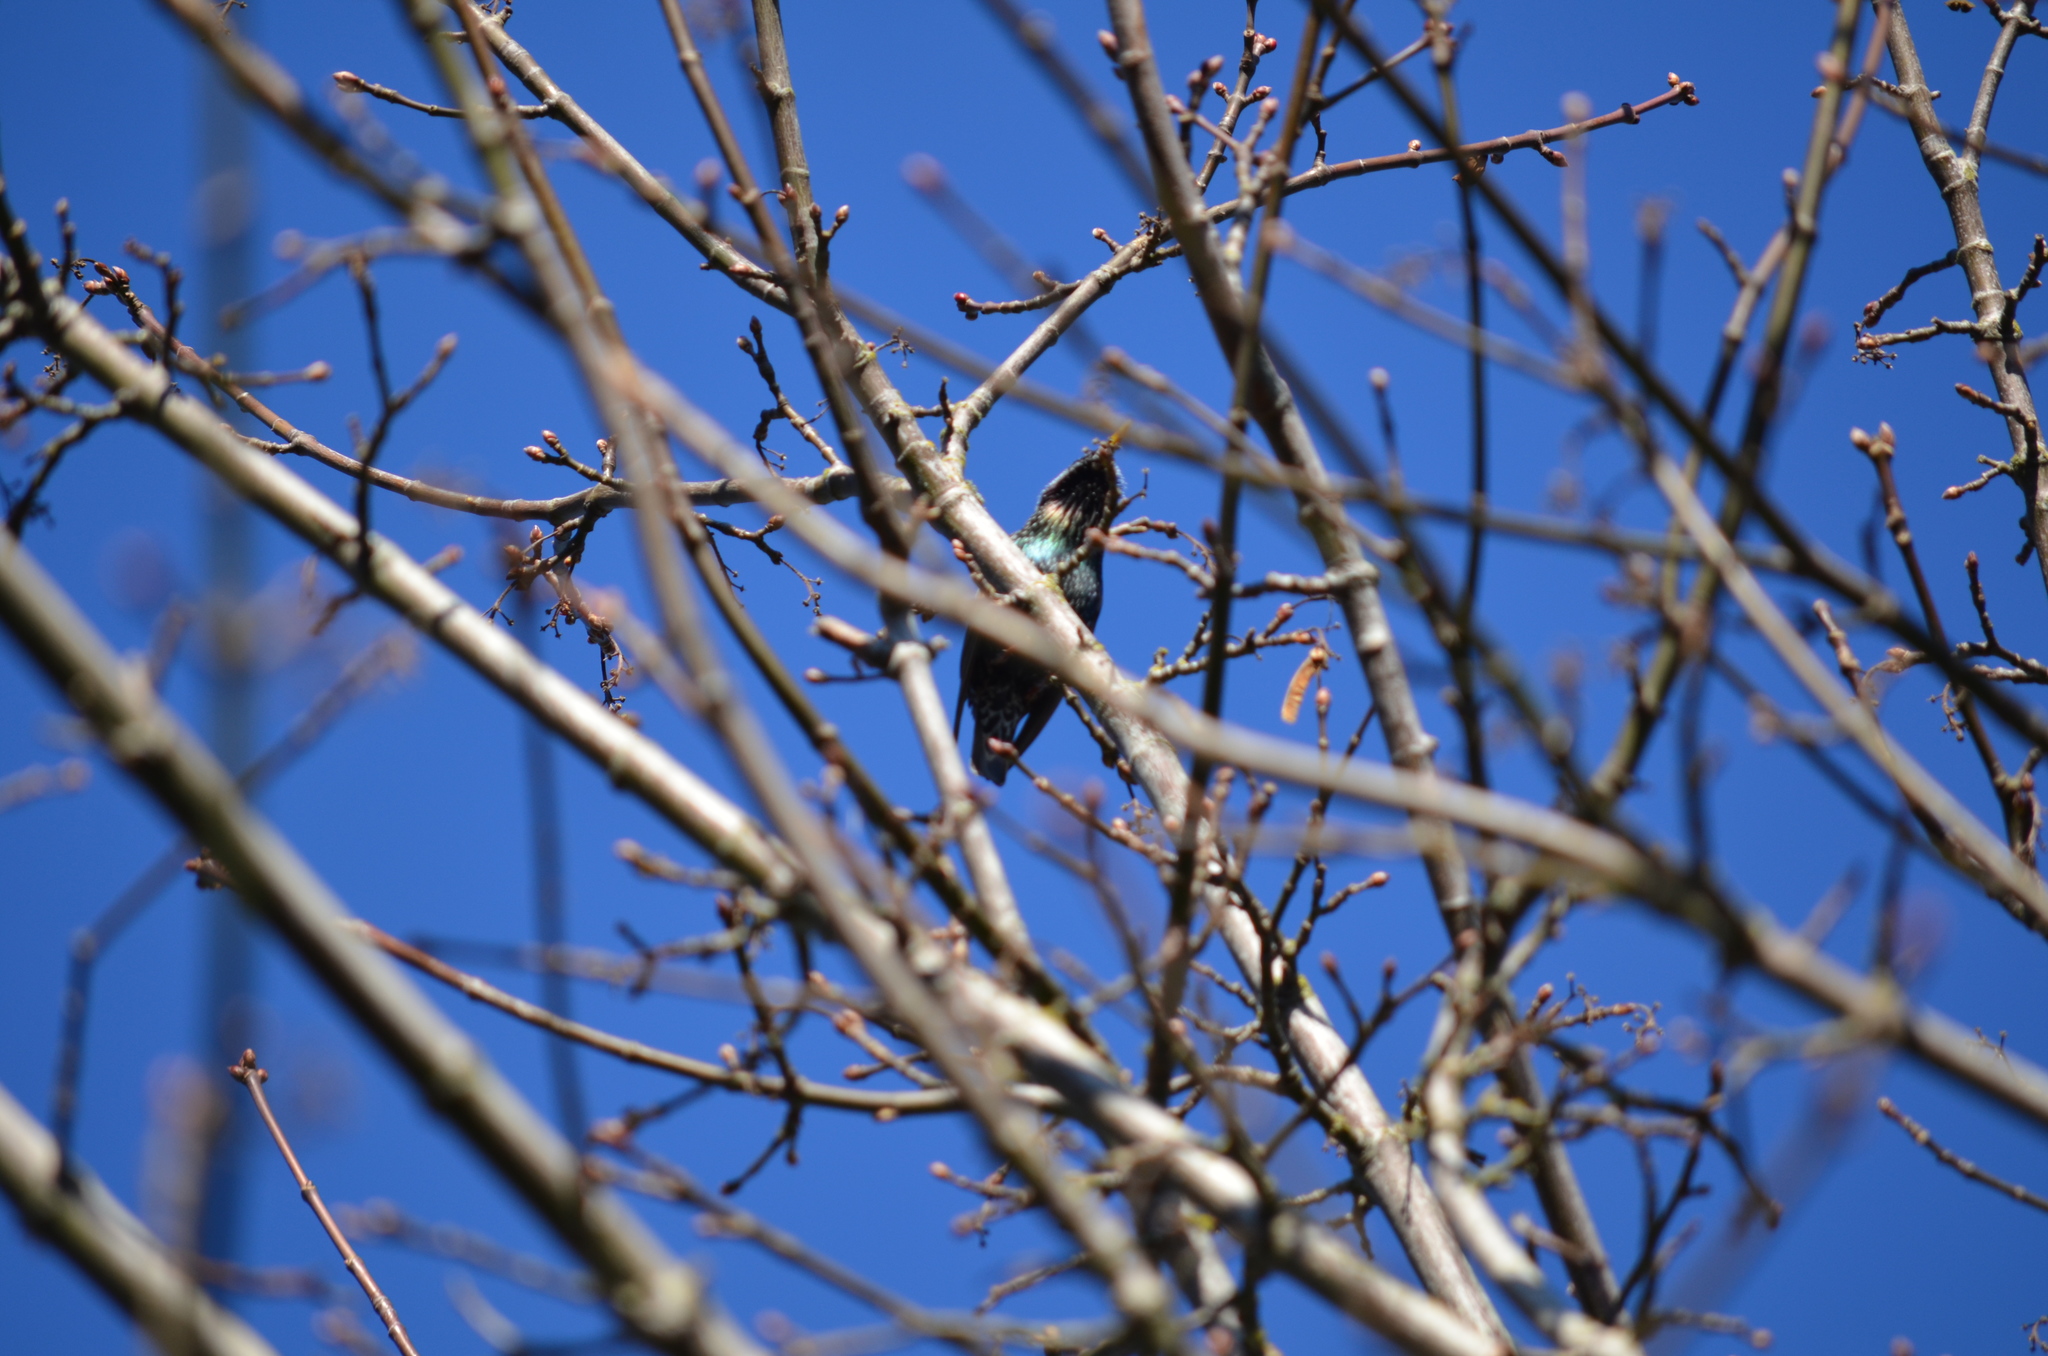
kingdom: Animalia
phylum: Chordata
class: Aves
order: Passeriformes
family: Sturnidae
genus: Sturnus
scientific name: Sturnus vulgaris
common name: Common starling
